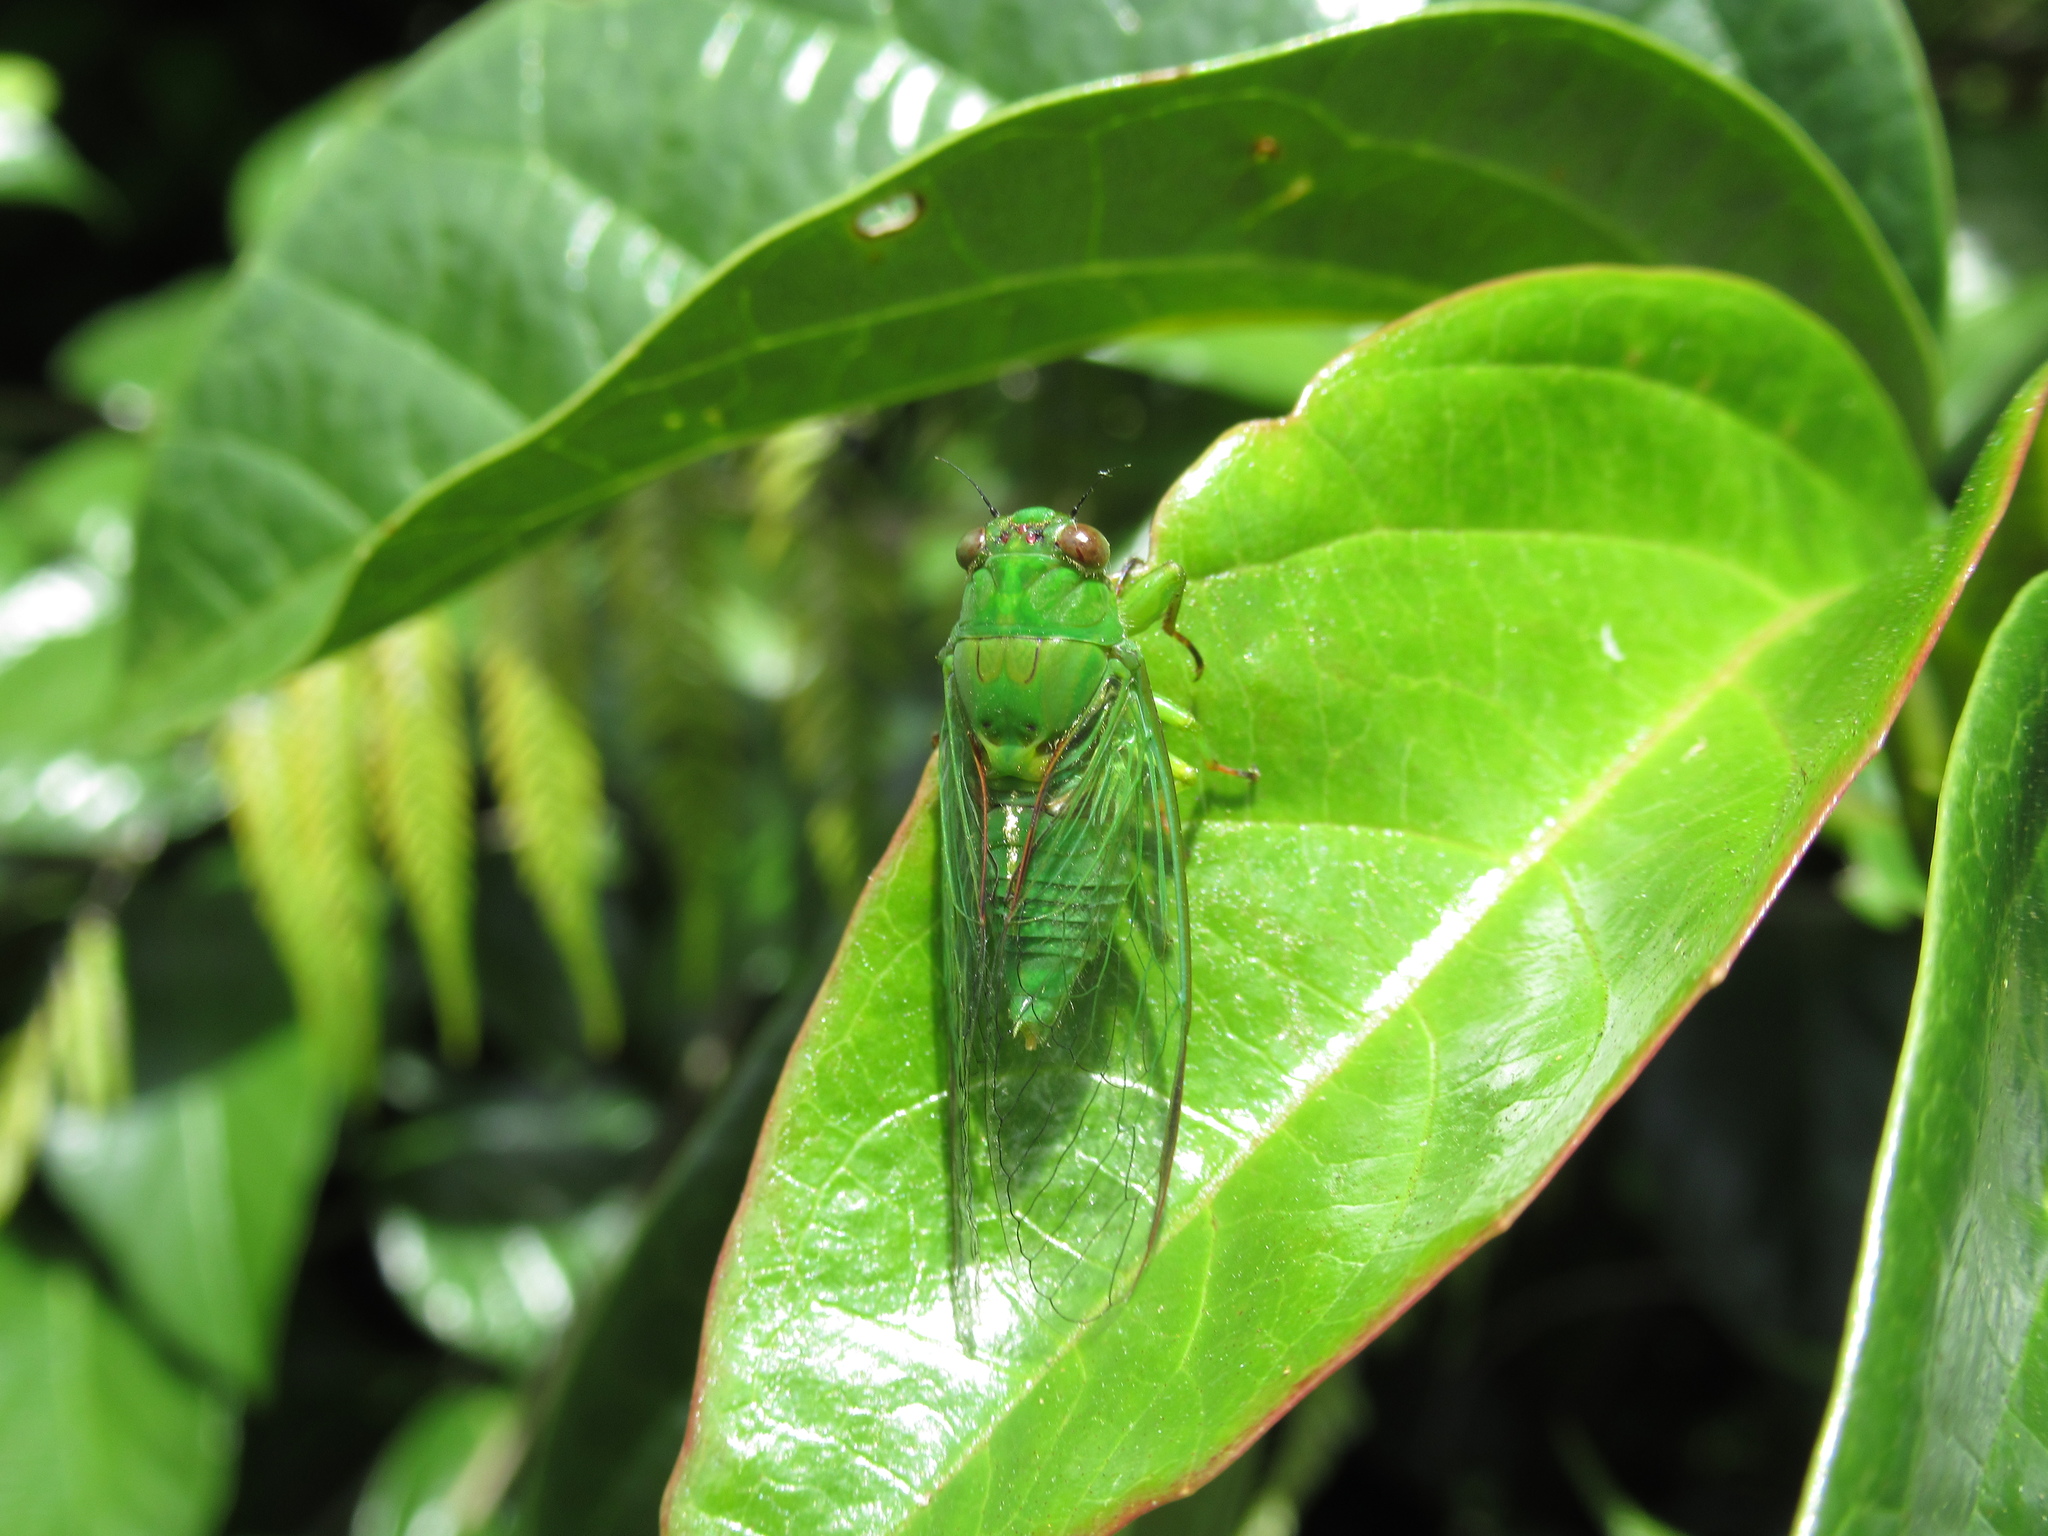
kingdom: Animalia
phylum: Arthropoda
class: Insecta
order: Hemiptera
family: Cicadidae
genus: Kikihia
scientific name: Kikihia ochrina
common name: April green cicada
